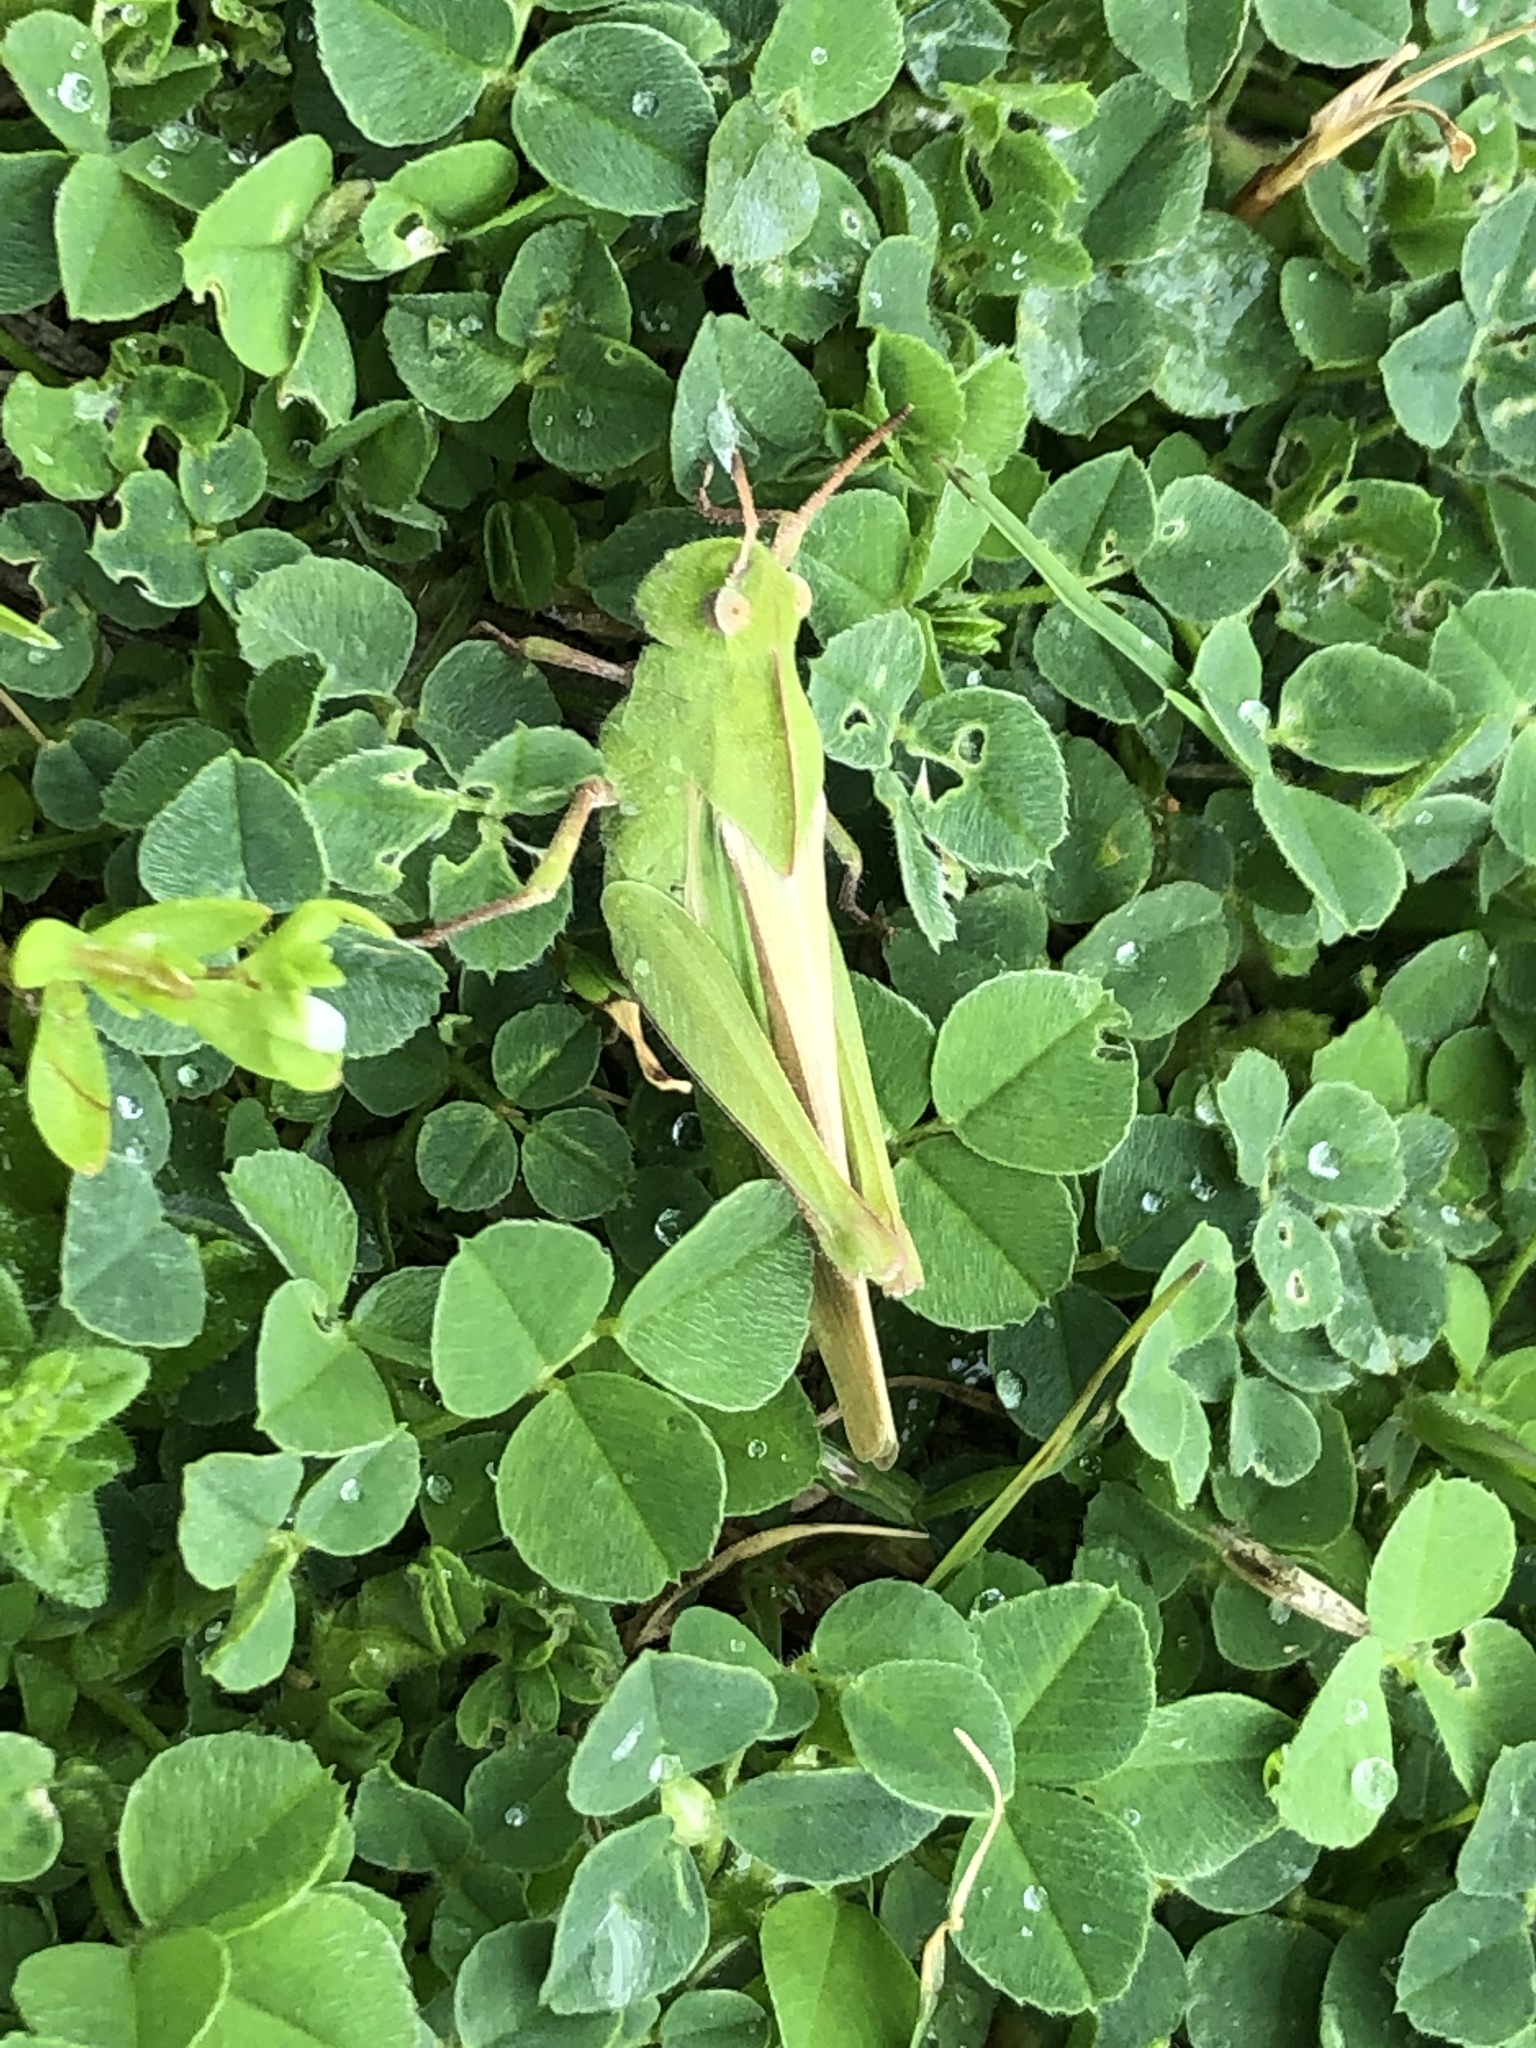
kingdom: Animalia
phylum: Arthropoda
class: Insecta
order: Orthoptera
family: Acrididae
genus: Chortophaga
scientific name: Chortophaga viridifasciata
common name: Green-striped grasshopper
